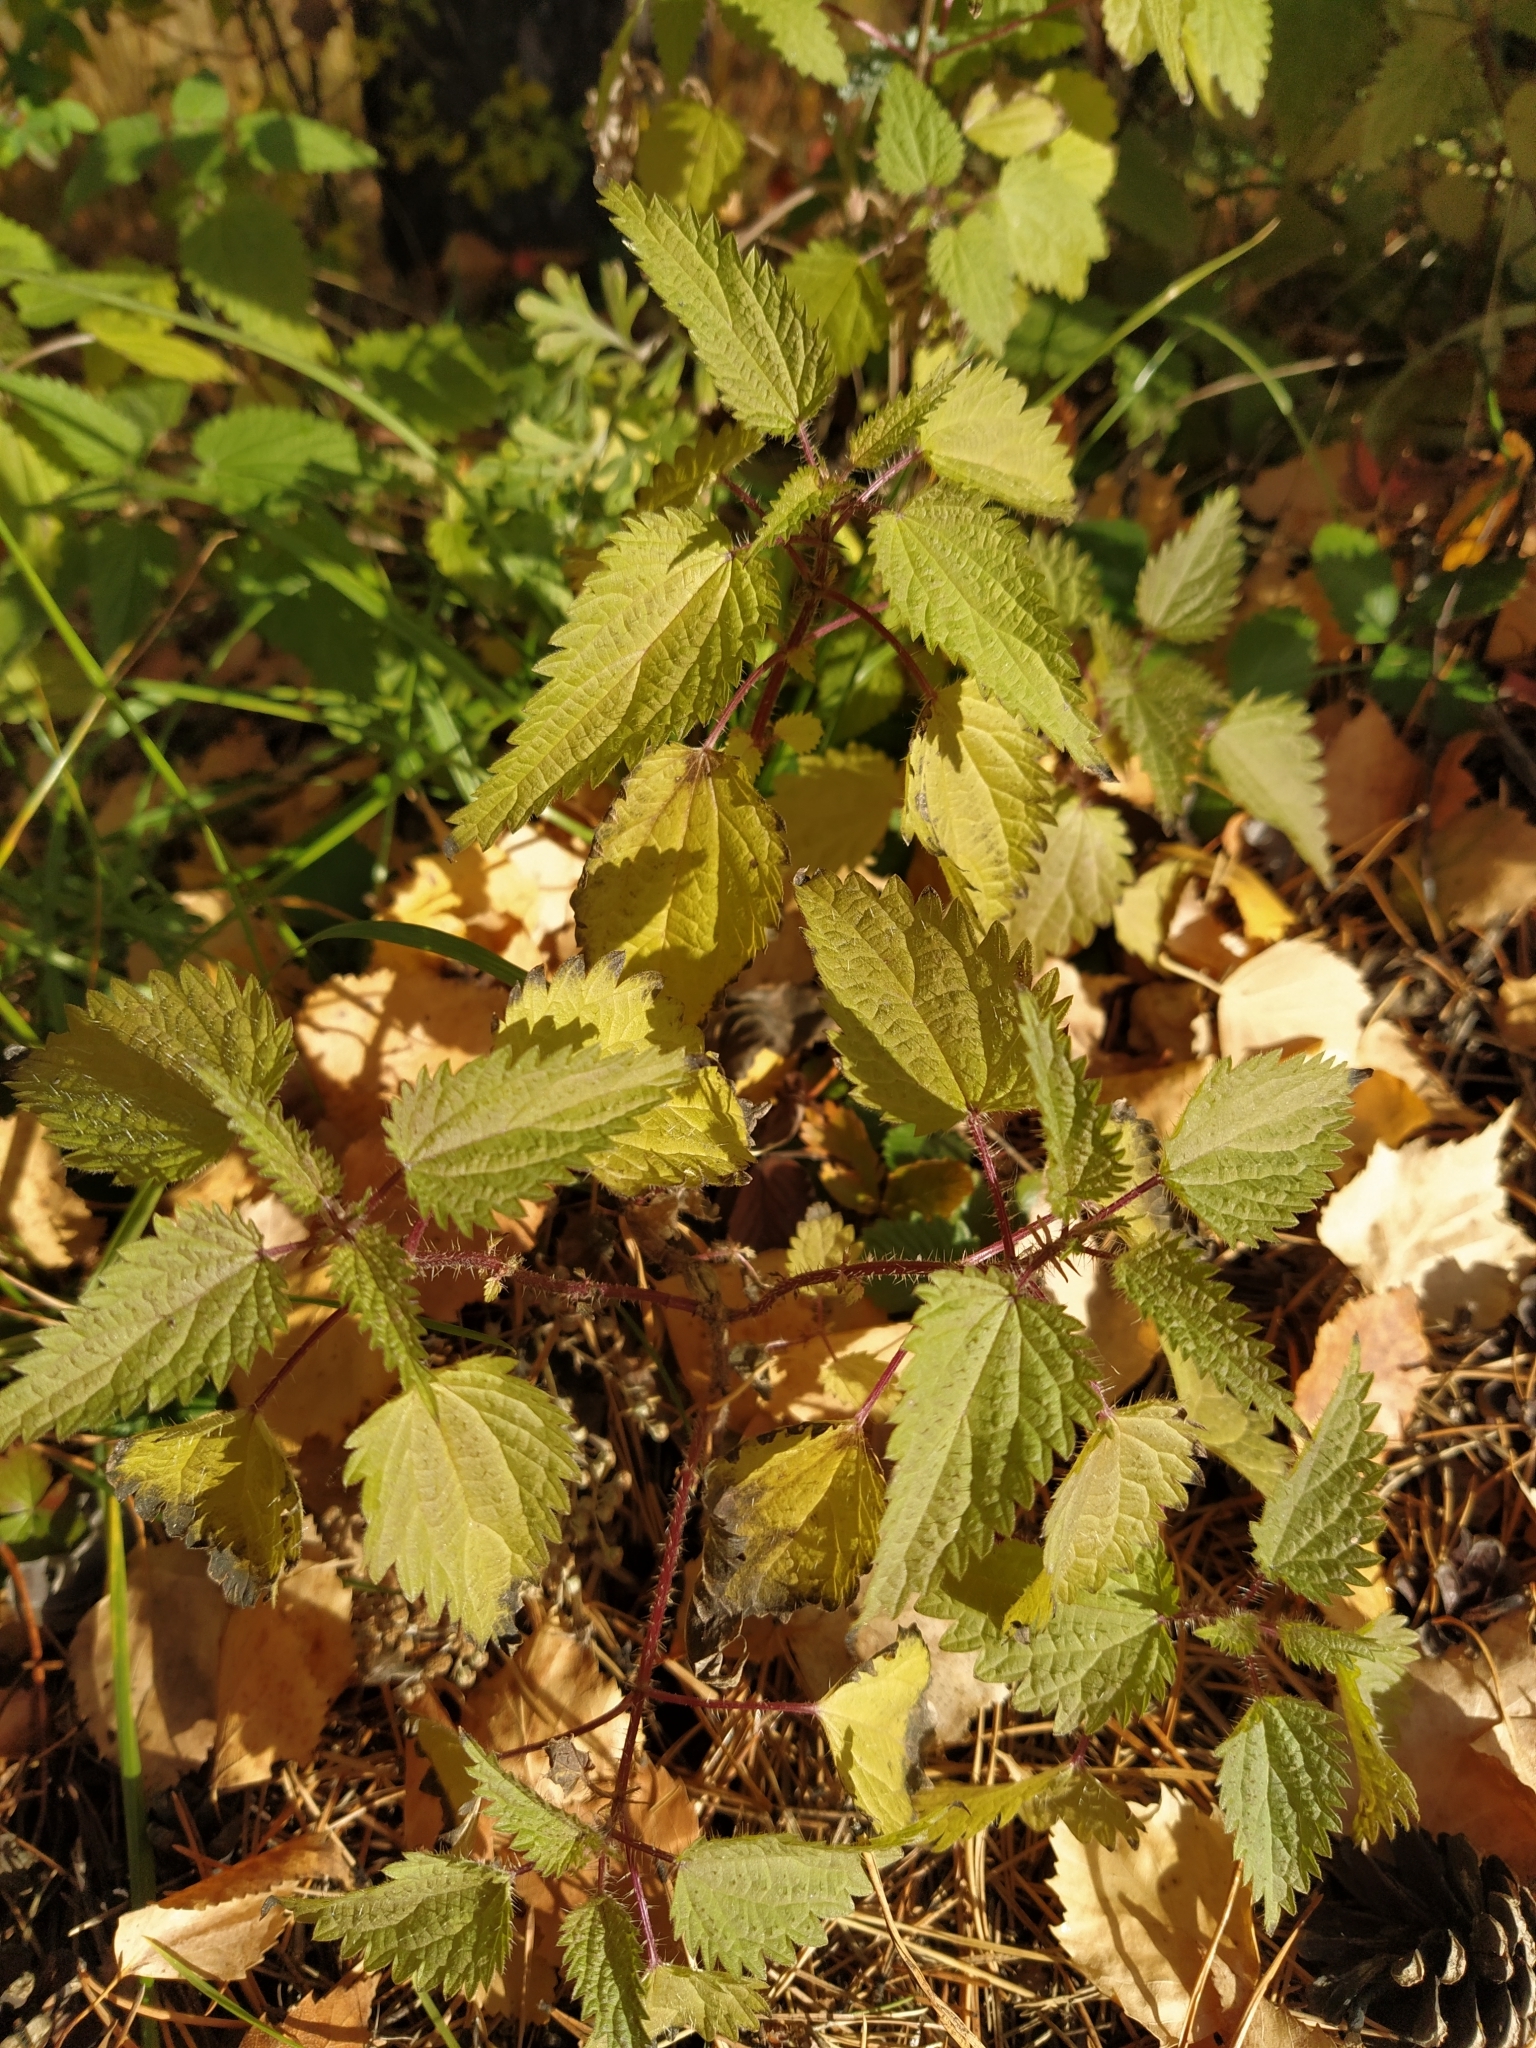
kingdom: Plantae
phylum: Tracheophyta
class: Magnoliopsida
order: Rosales
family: Urticaceae
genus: Urtica
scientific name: Urtica dioica
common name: Common nettle
